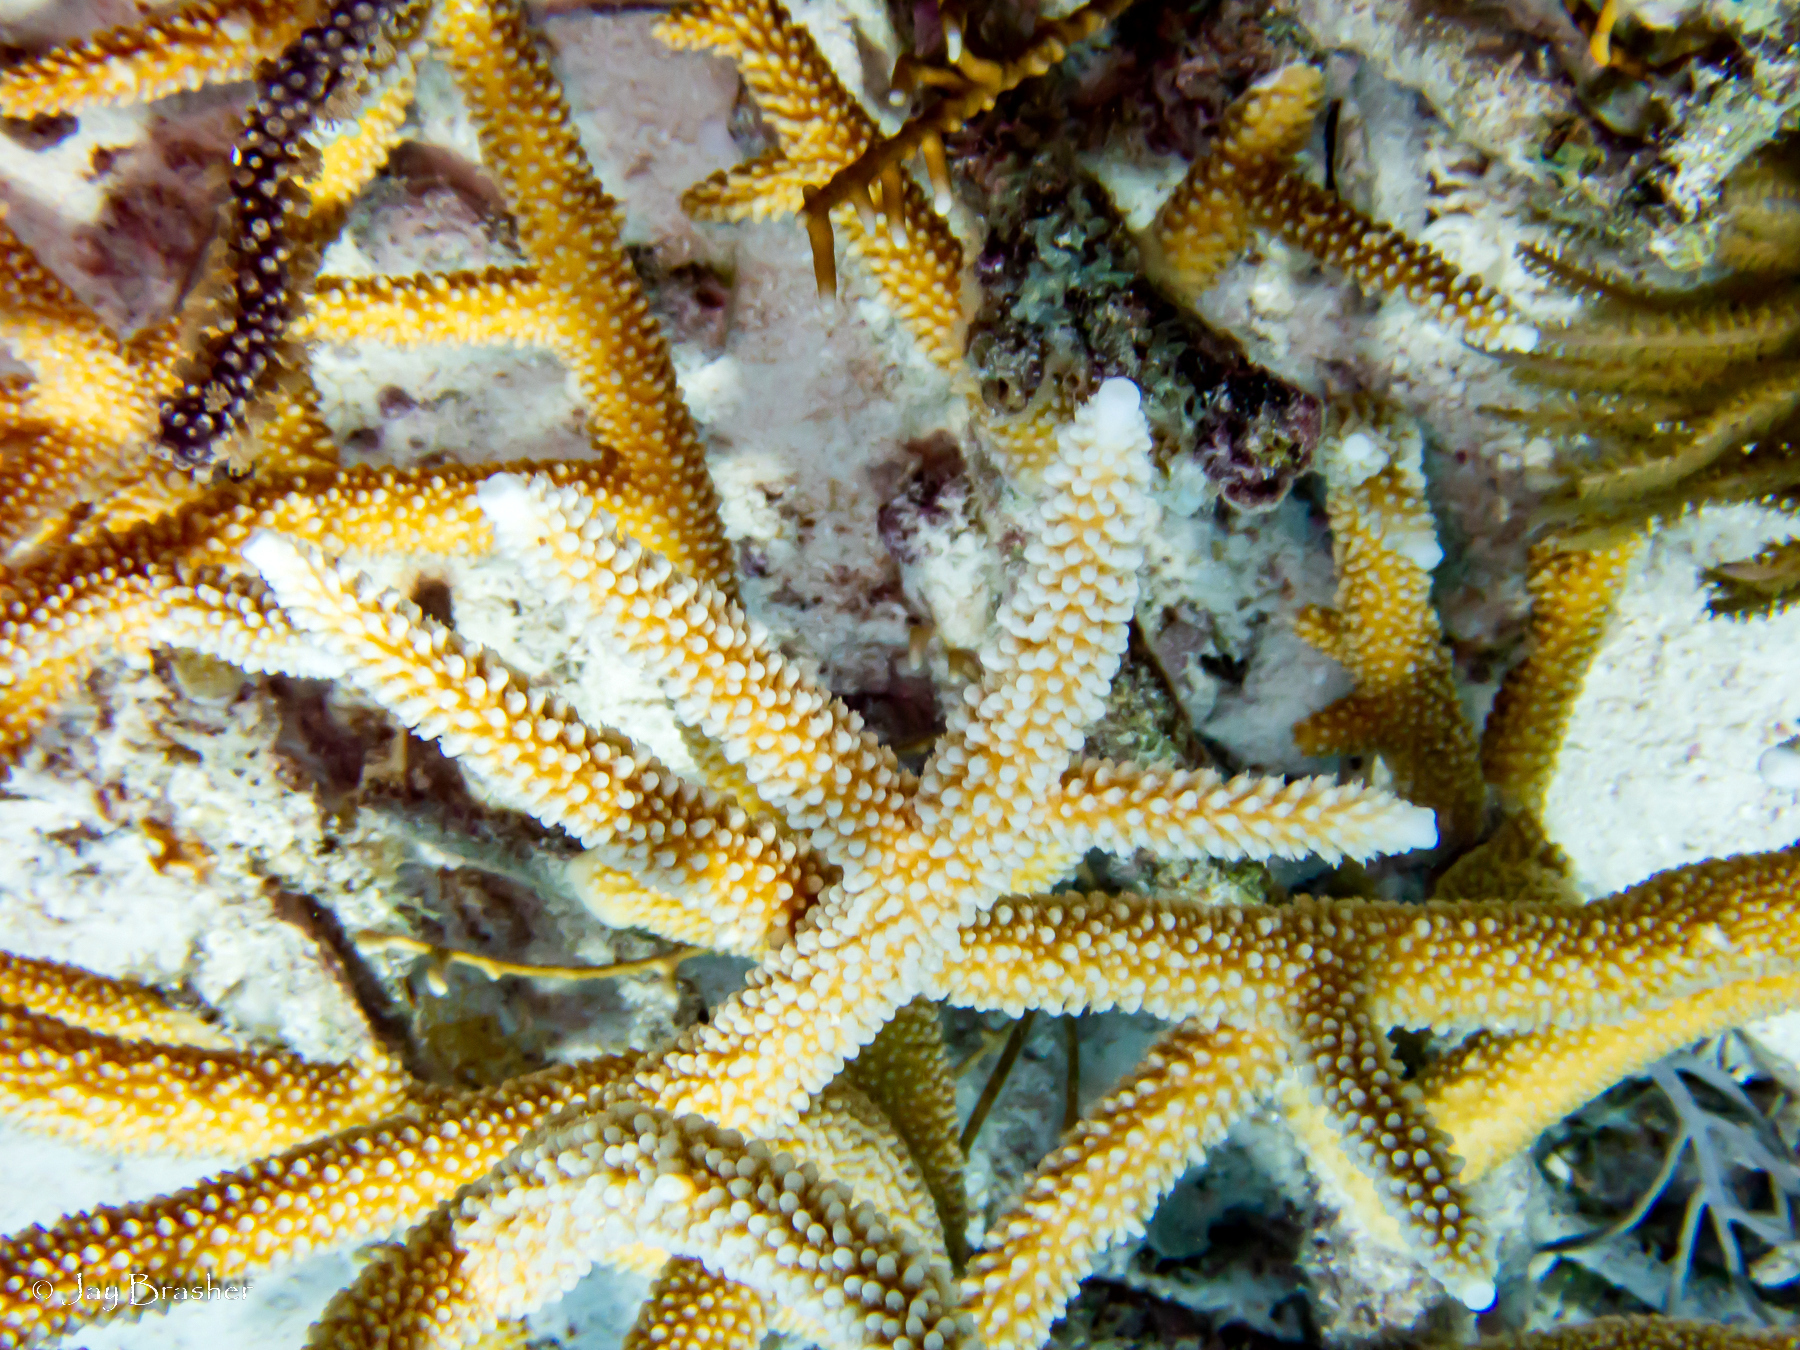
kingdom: Animalia
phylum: Cnidaria
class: Anthozoa
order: Scleractinia
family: Acroporidae
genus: Acropora
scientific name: Acropora cervicornis
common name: Staghorn coral
